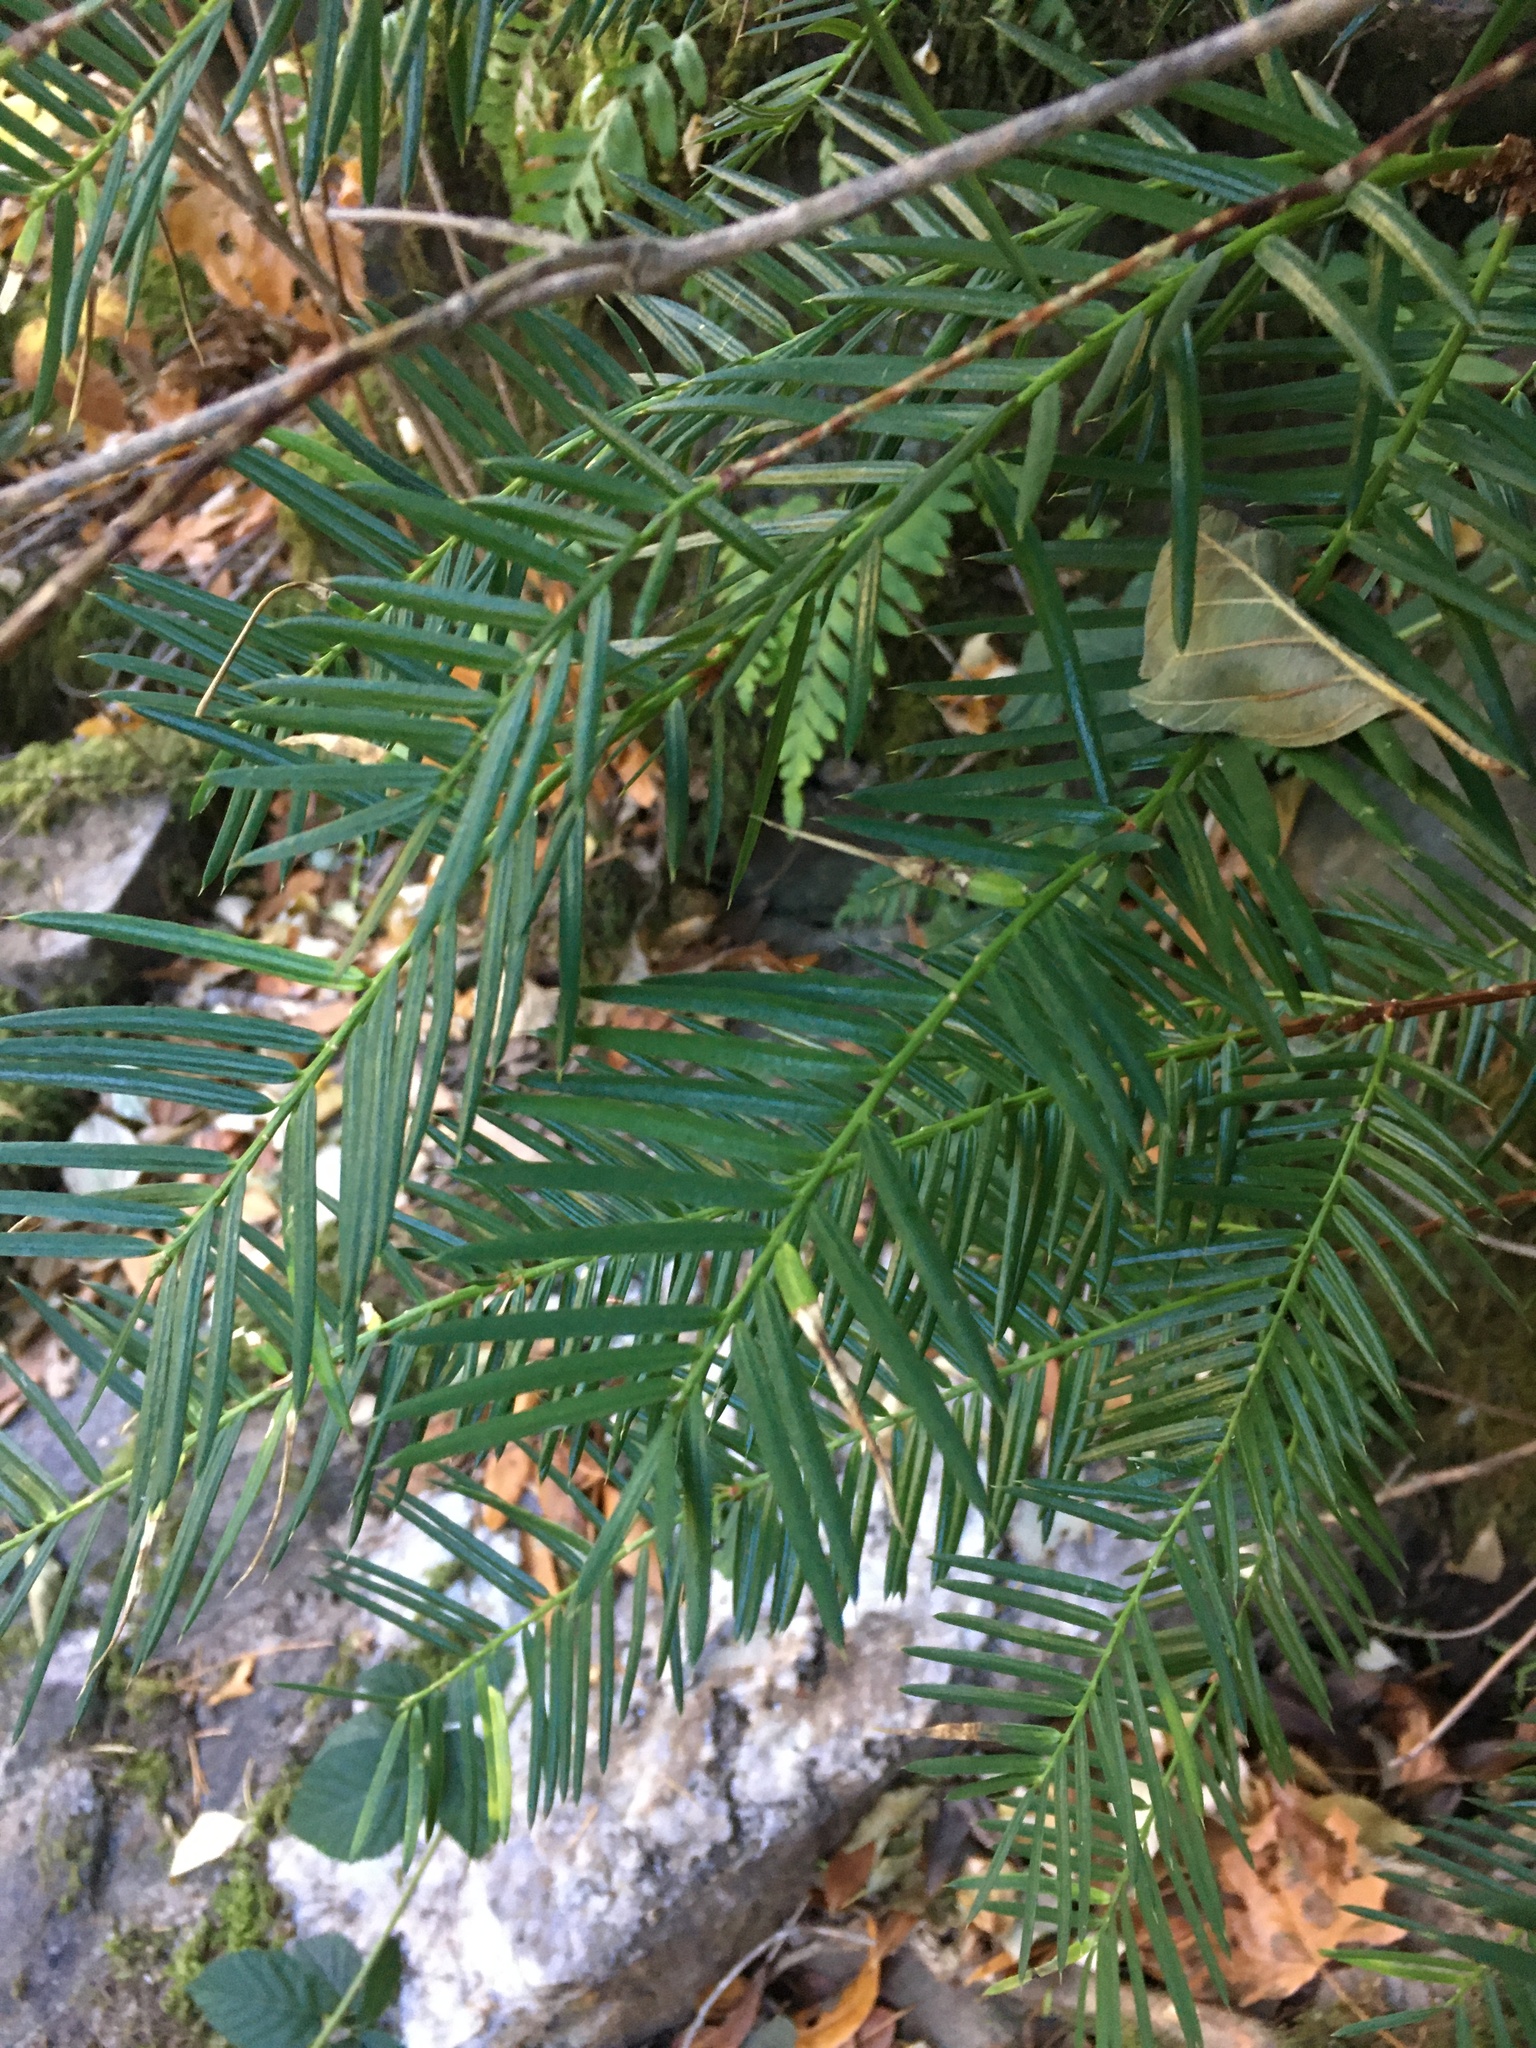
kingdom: Plantae
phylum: Tracheophyta
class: Pinopsida
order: Pinales
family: Taxaceae
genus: Torreya
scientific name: Torreya californica
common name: California torreya
